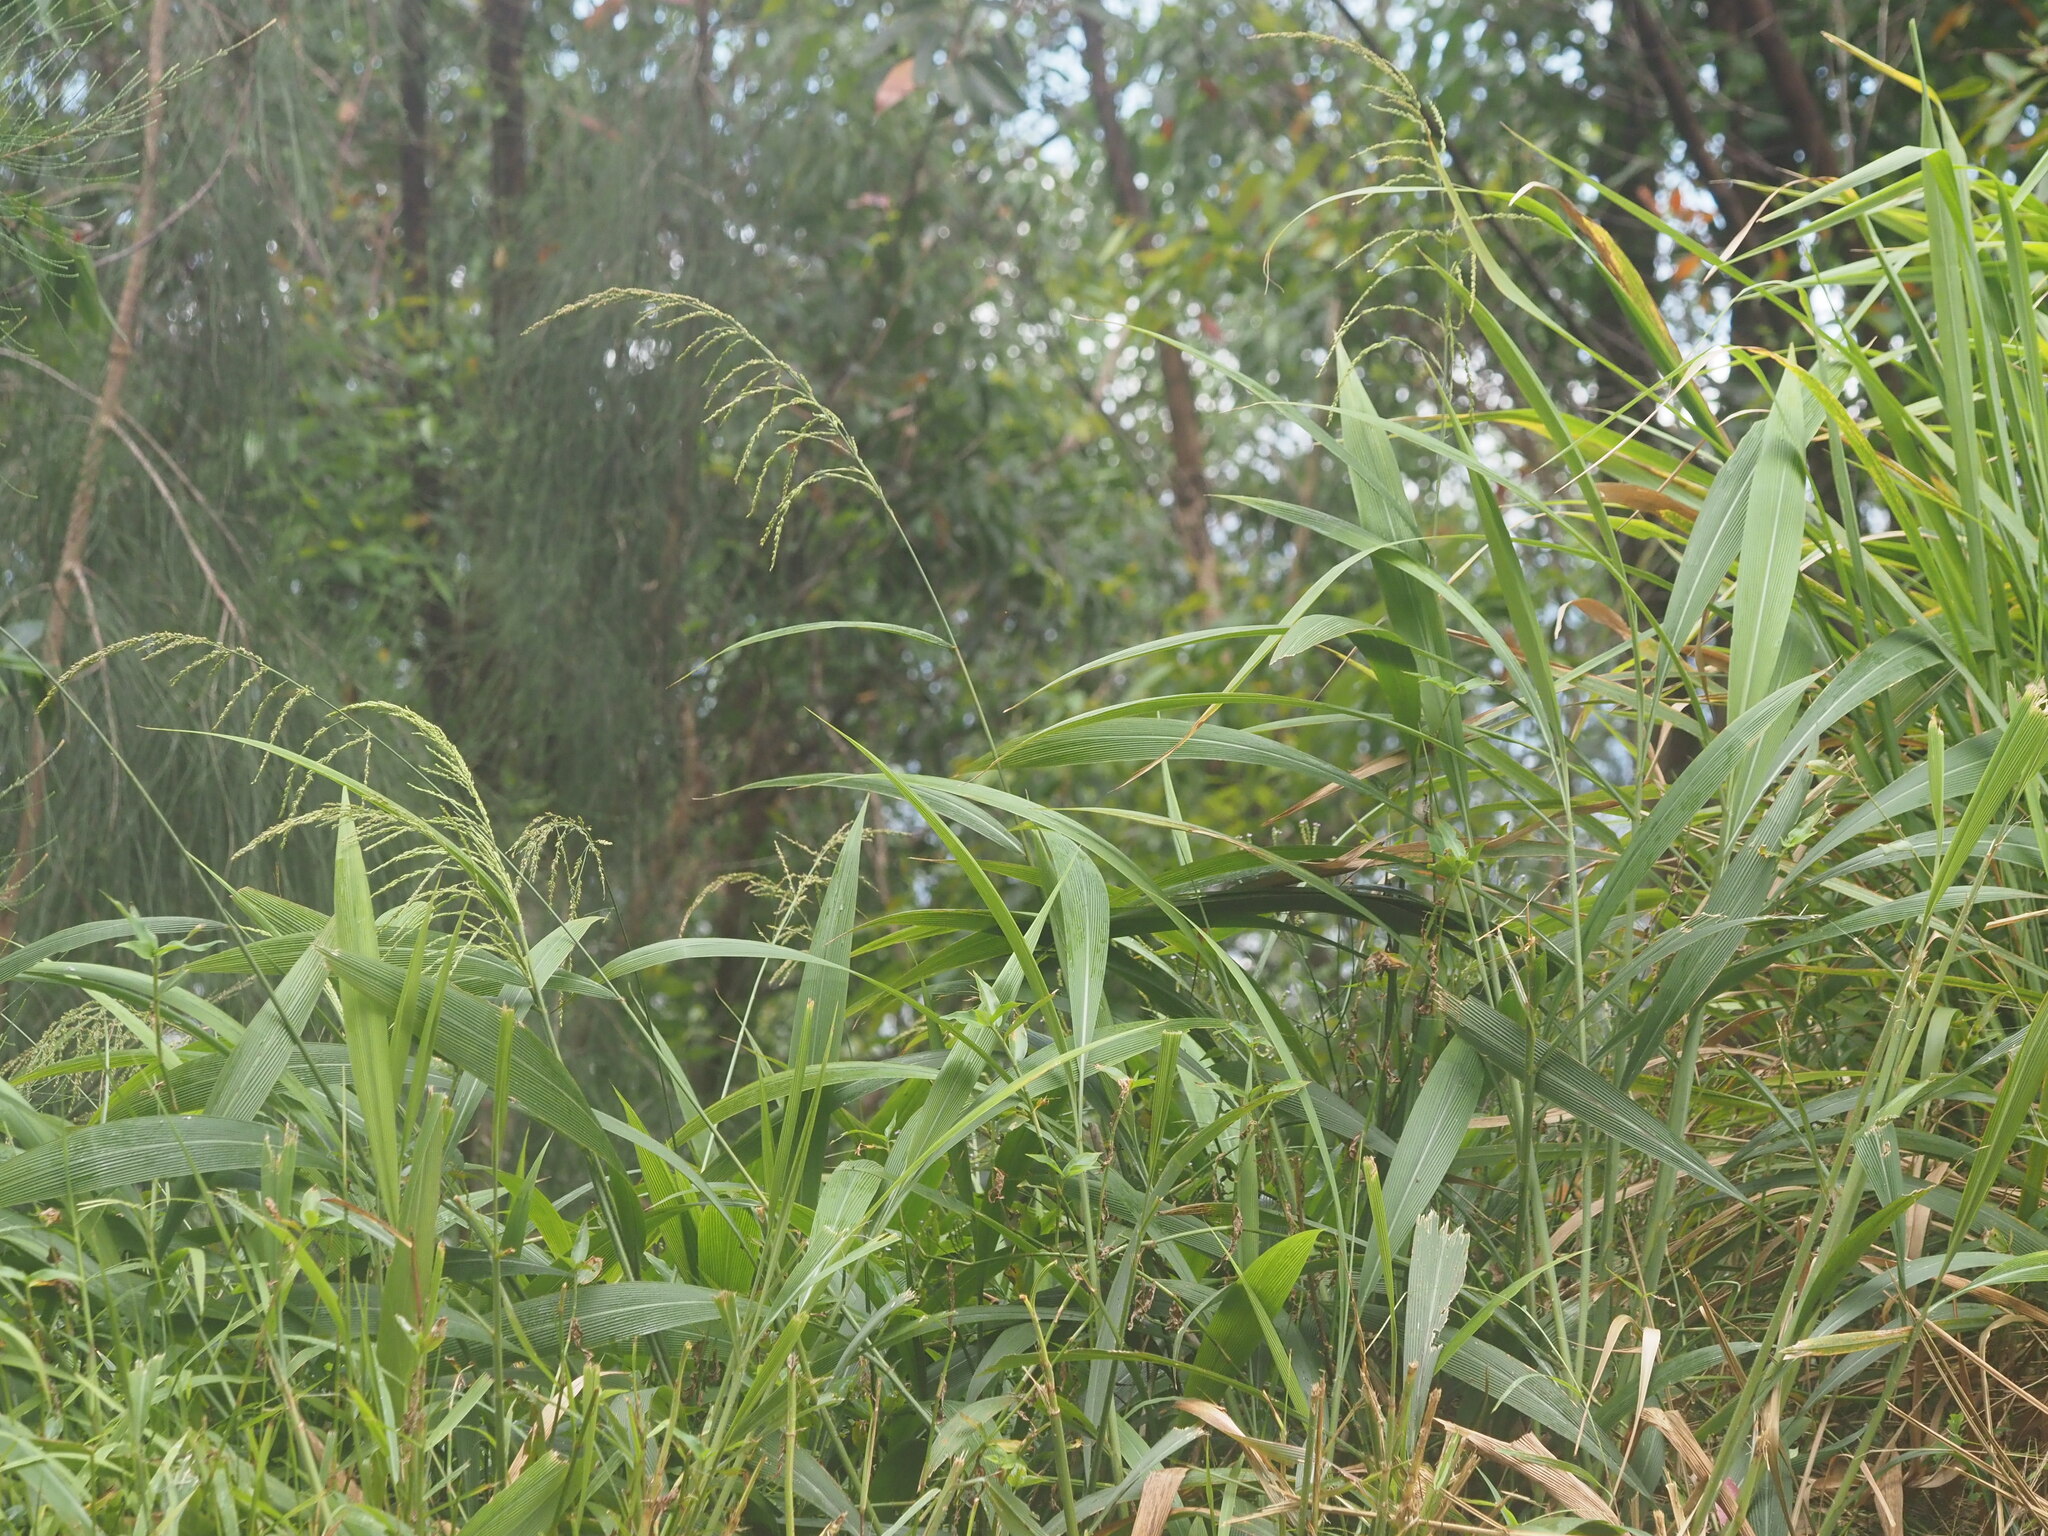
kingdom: Plantae
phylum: Tracheophyta
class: Liliopsida
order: Poales
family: Poaceae
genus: Setaria
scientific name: Setaria palmifolia
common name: Broadleaved bristlegrass
